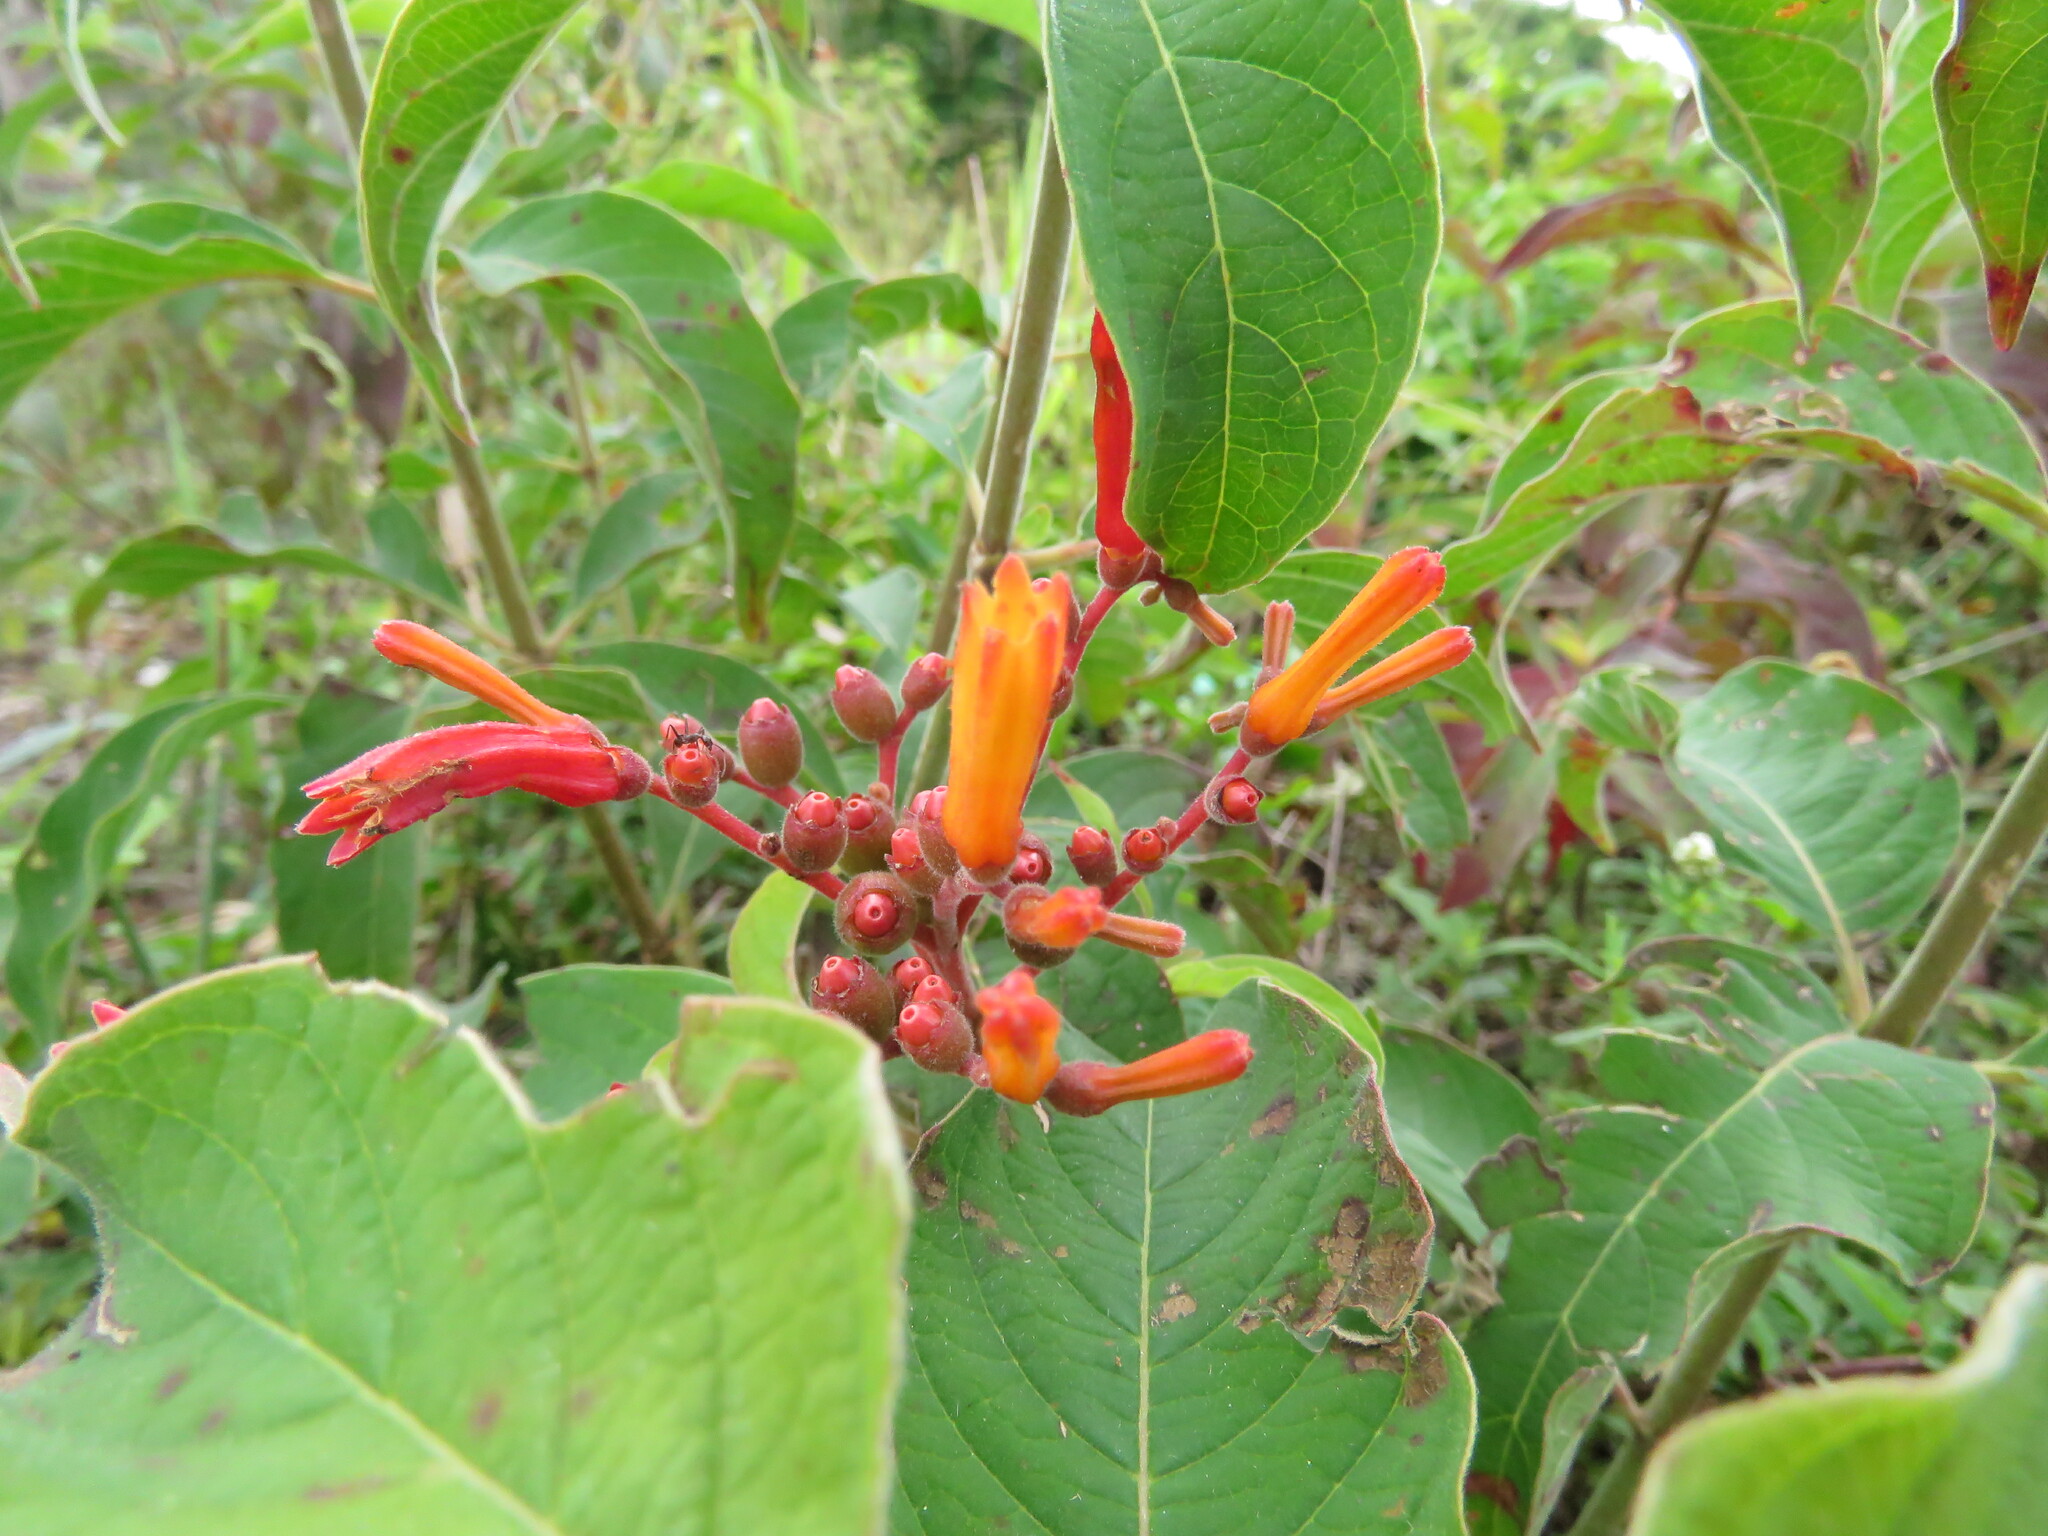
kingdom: Plantae
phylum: Tracheophyta
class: Magnoliopsida
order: Gentianales
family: Rubiaceae
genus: Hamelia
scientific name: Hamelia patens
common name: Redhead
